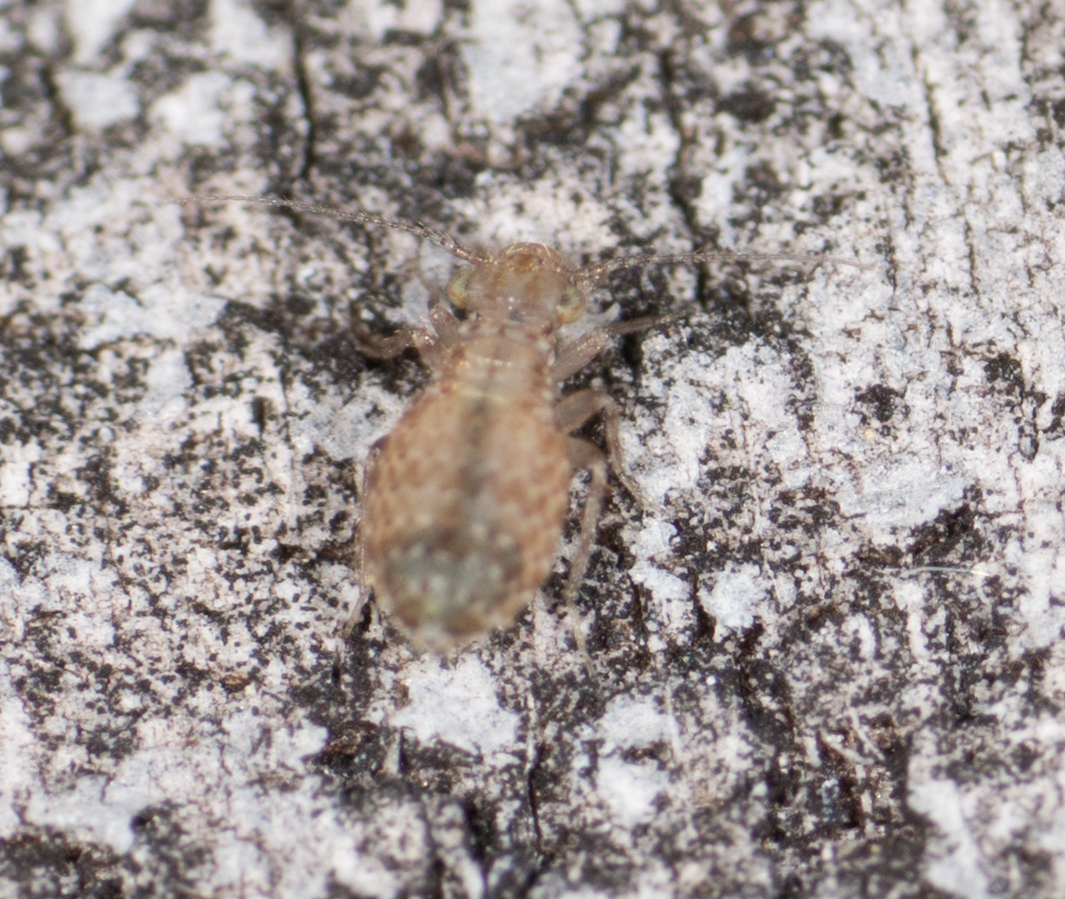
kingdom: Animalia
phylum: Arthropoda
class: Insecta
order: Psocodea
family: Trogiidae
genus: Cerobasis
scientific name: Cerobasis guestfalica
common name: Book lice
